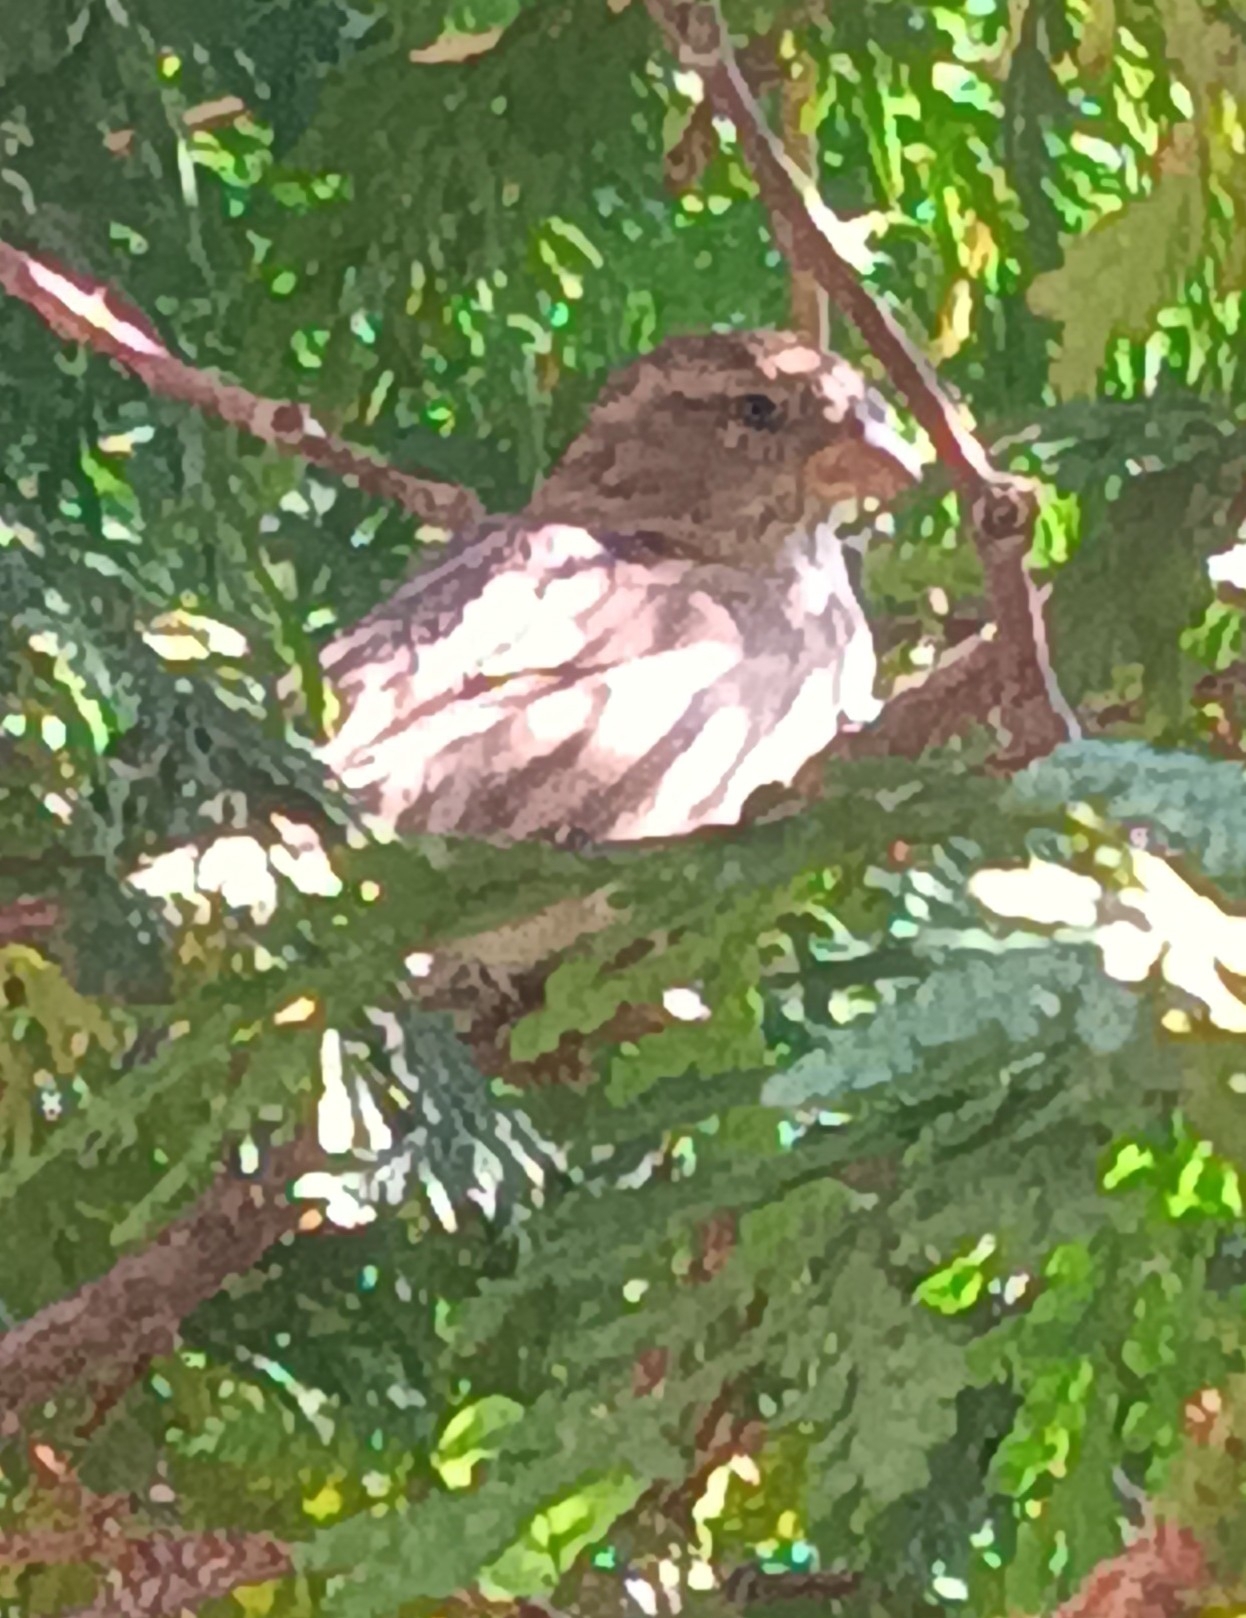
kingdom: Animalia
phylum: Chordata
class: Aves
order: Passeriformes
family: Passeridae
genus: Passer
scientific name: Passer domesticus
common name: House sparrow
